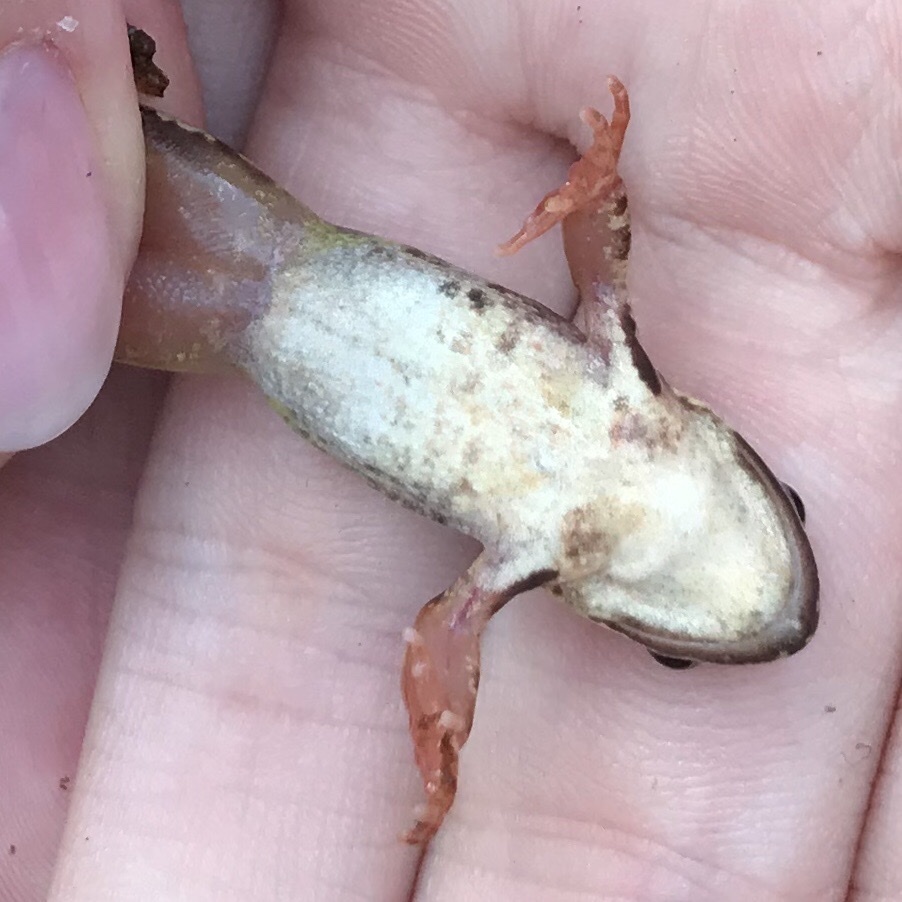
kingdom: Animalia
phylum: Chordata
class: Amphibia
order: Anura
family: Ranidae
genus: Rana
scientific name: Rana temporaria
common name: Common frog
